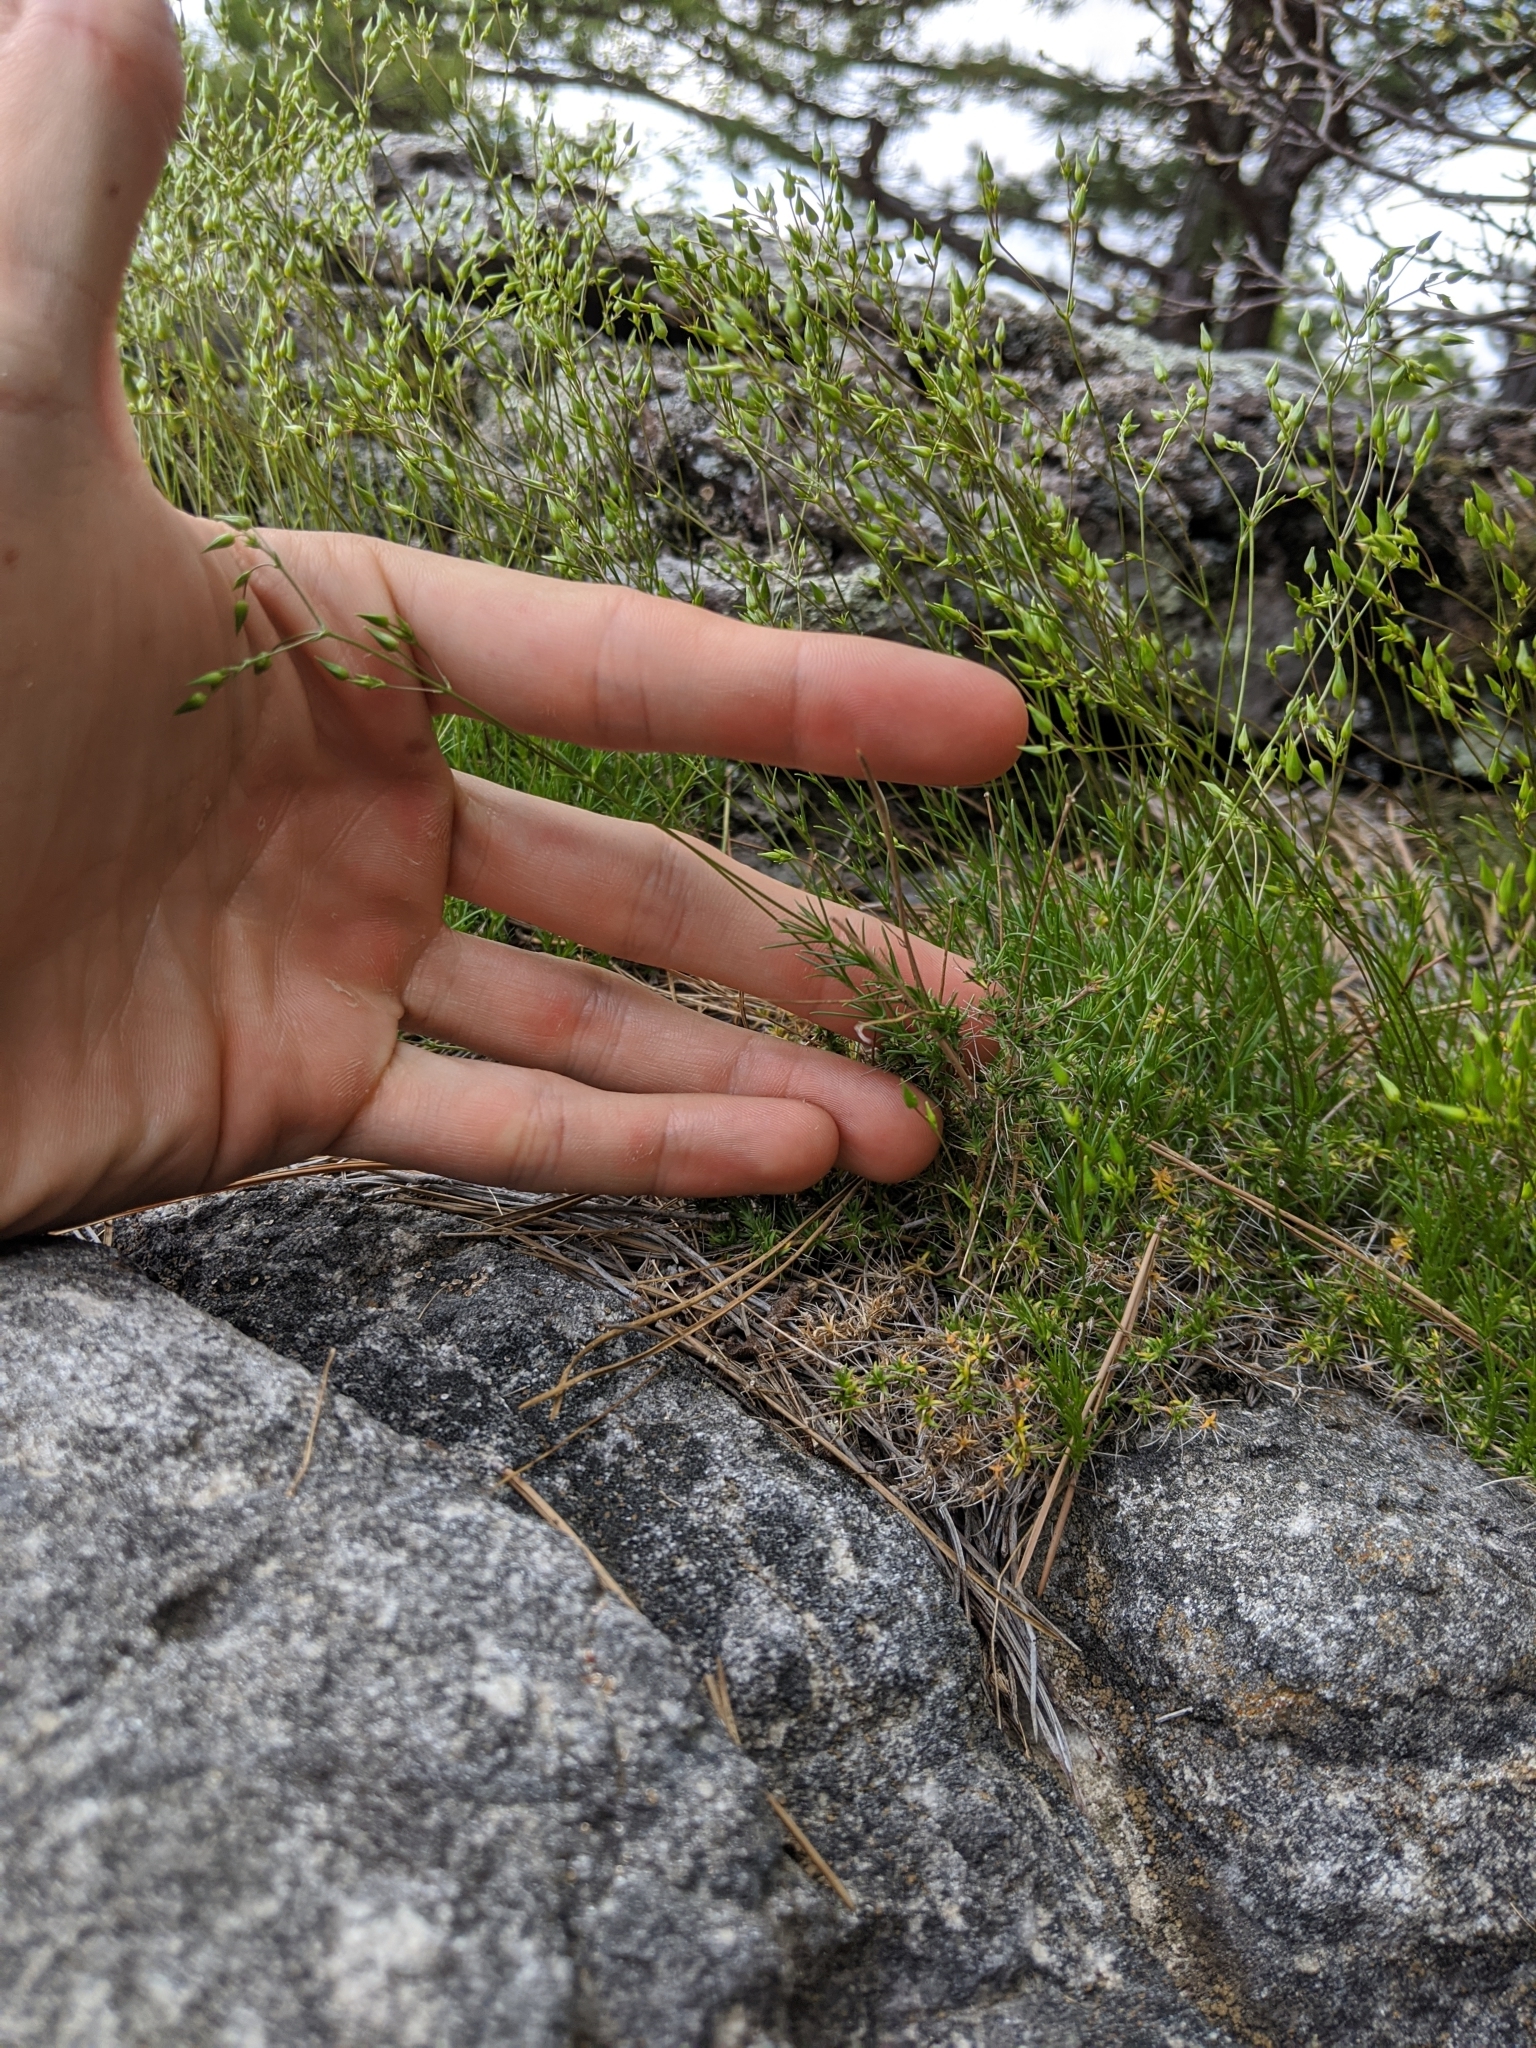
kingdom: Plantae
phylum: Tracheophyta
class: Magnoliopsida
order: Caryophyllales
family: Caryophyllaceae
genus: Sabulina
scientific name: Sabulina michauxii
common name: Michaux's stitchwort
